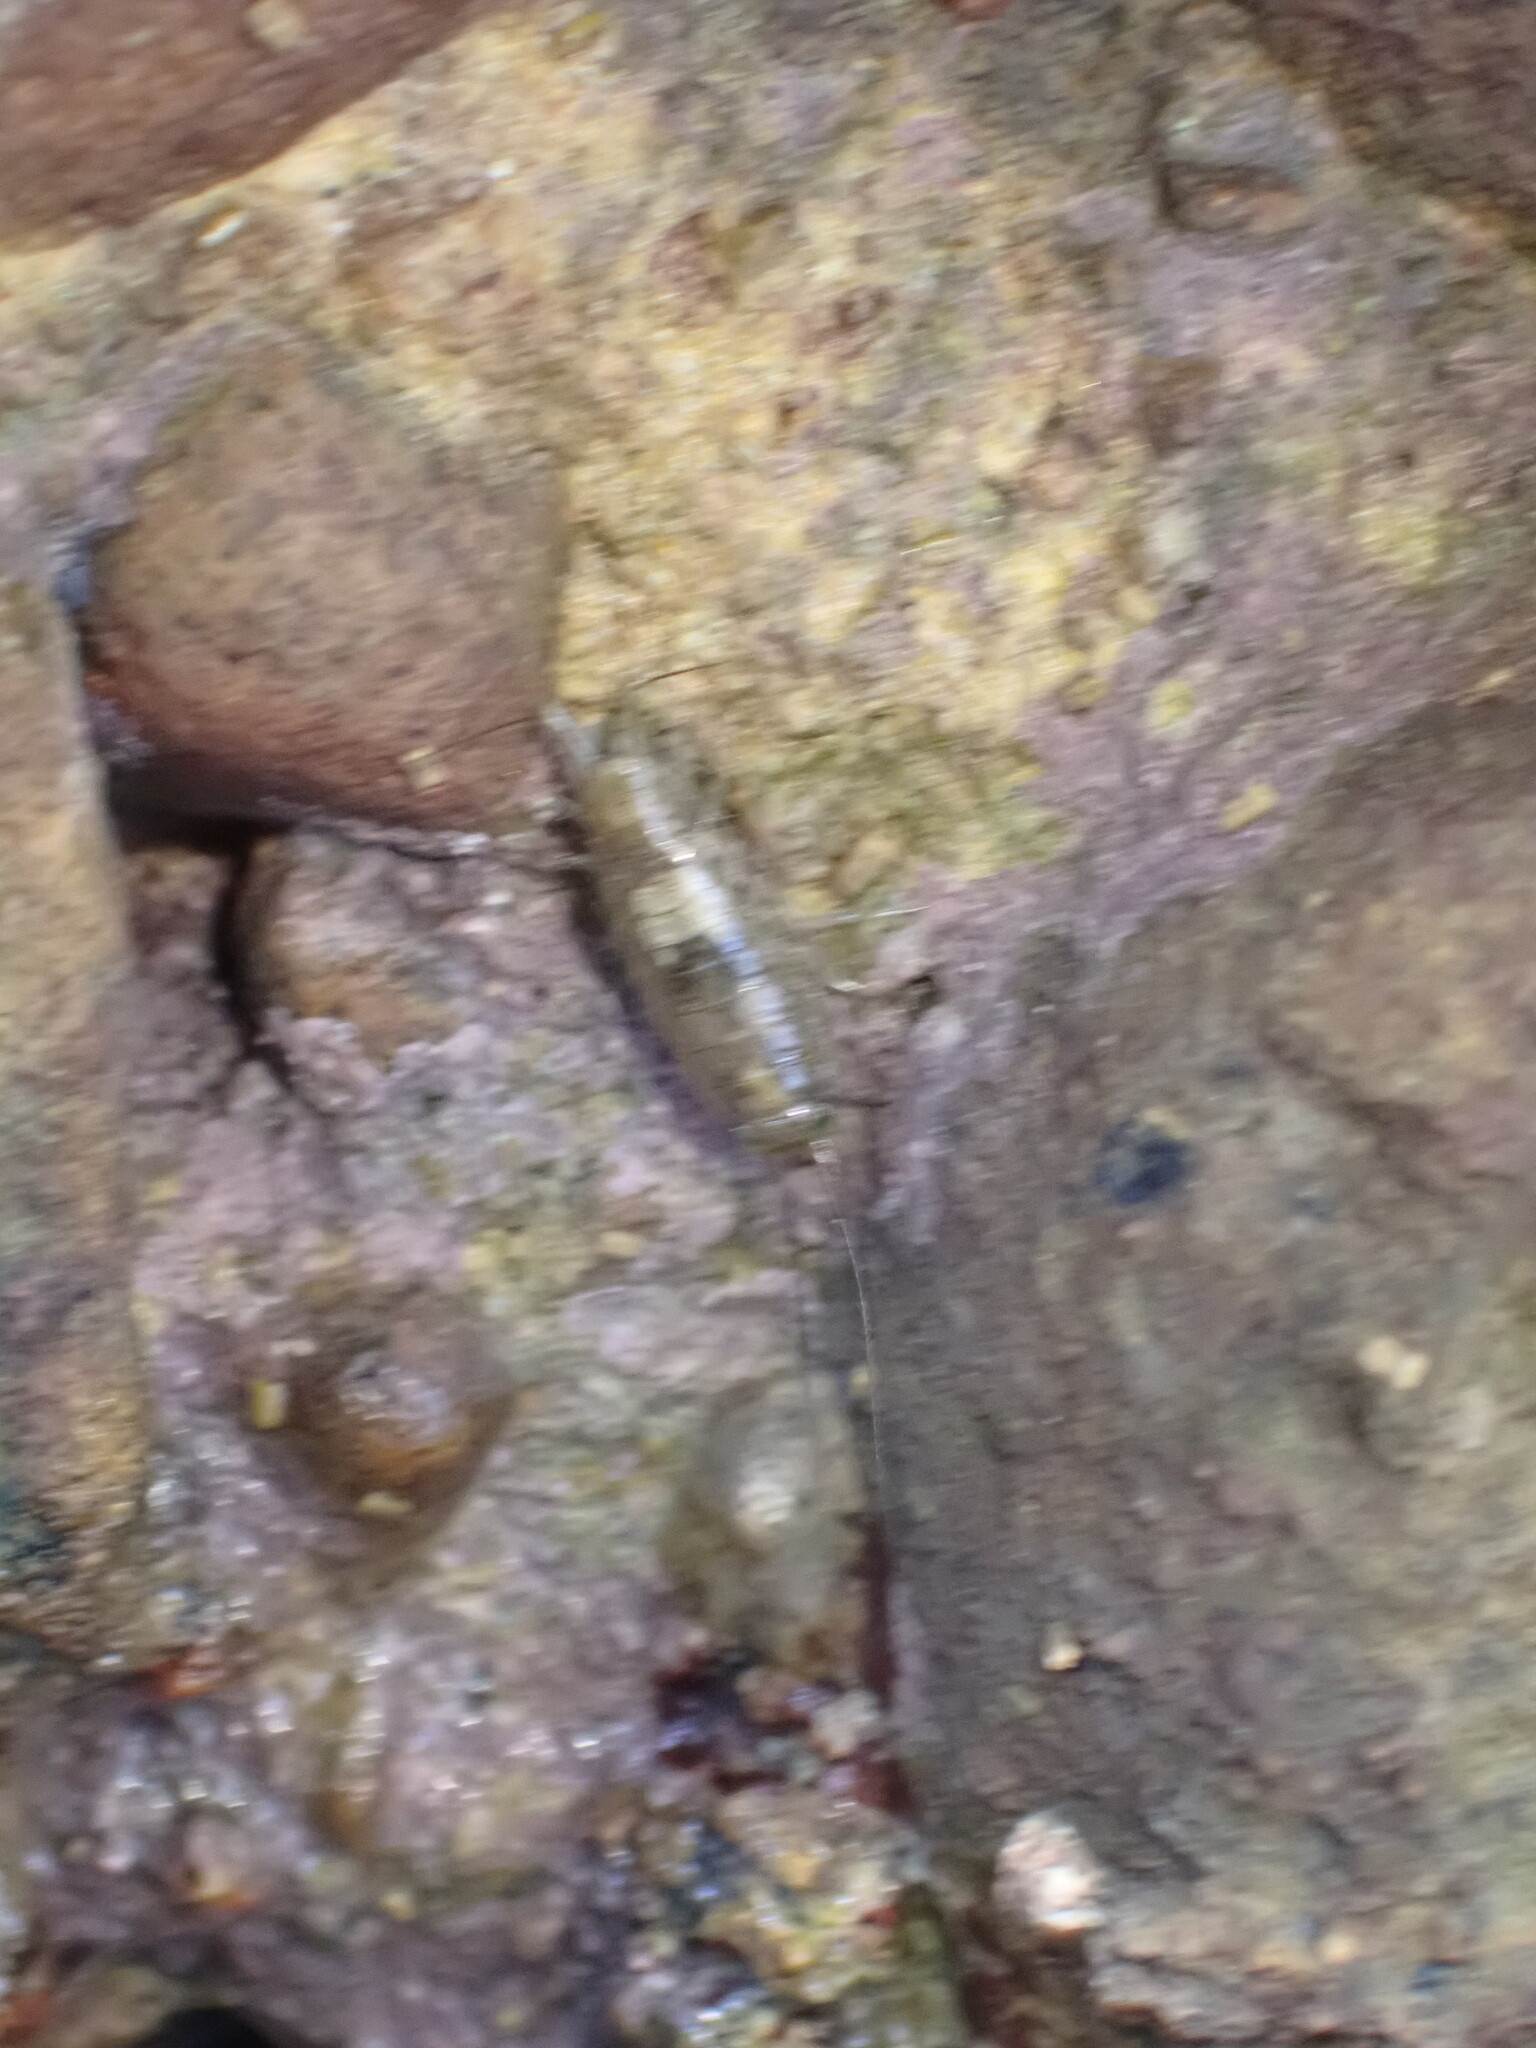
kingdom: Animalia
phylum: Arthropoda
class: Malacostraca
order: Isopoda
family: Ligiidae
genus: Ligia
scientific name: Ligia italica
